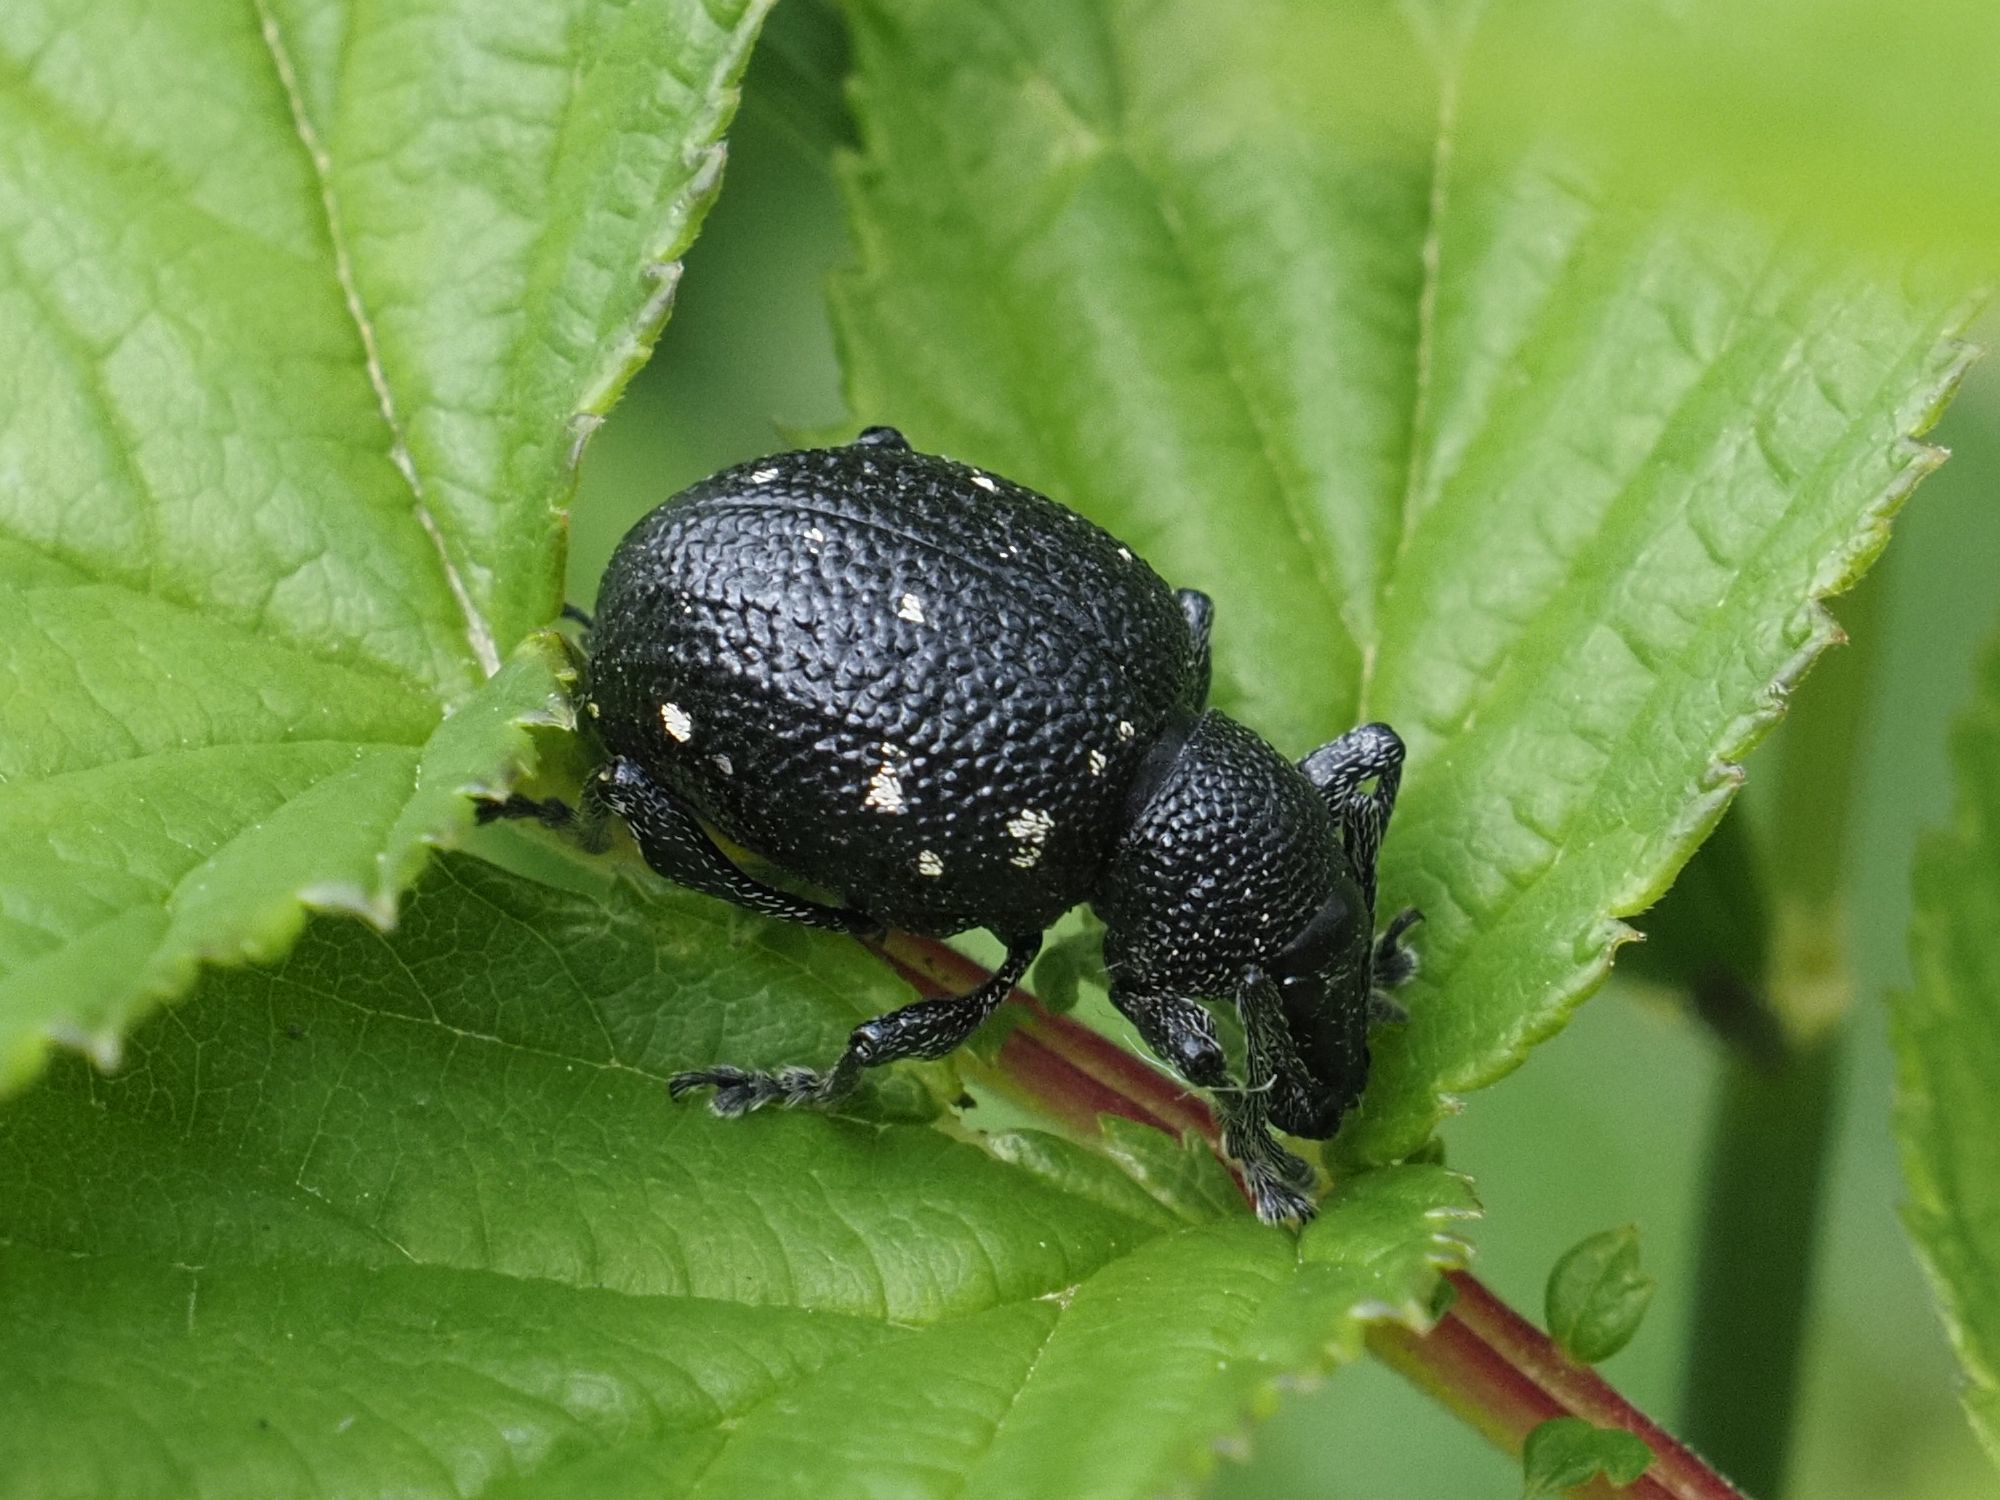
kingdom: Animalia
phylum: Arthropoda
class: Insecta
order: Coleoptera
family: Curculionidae
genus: Otiorhynchus
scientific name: Otiorhynchus gemmatus
